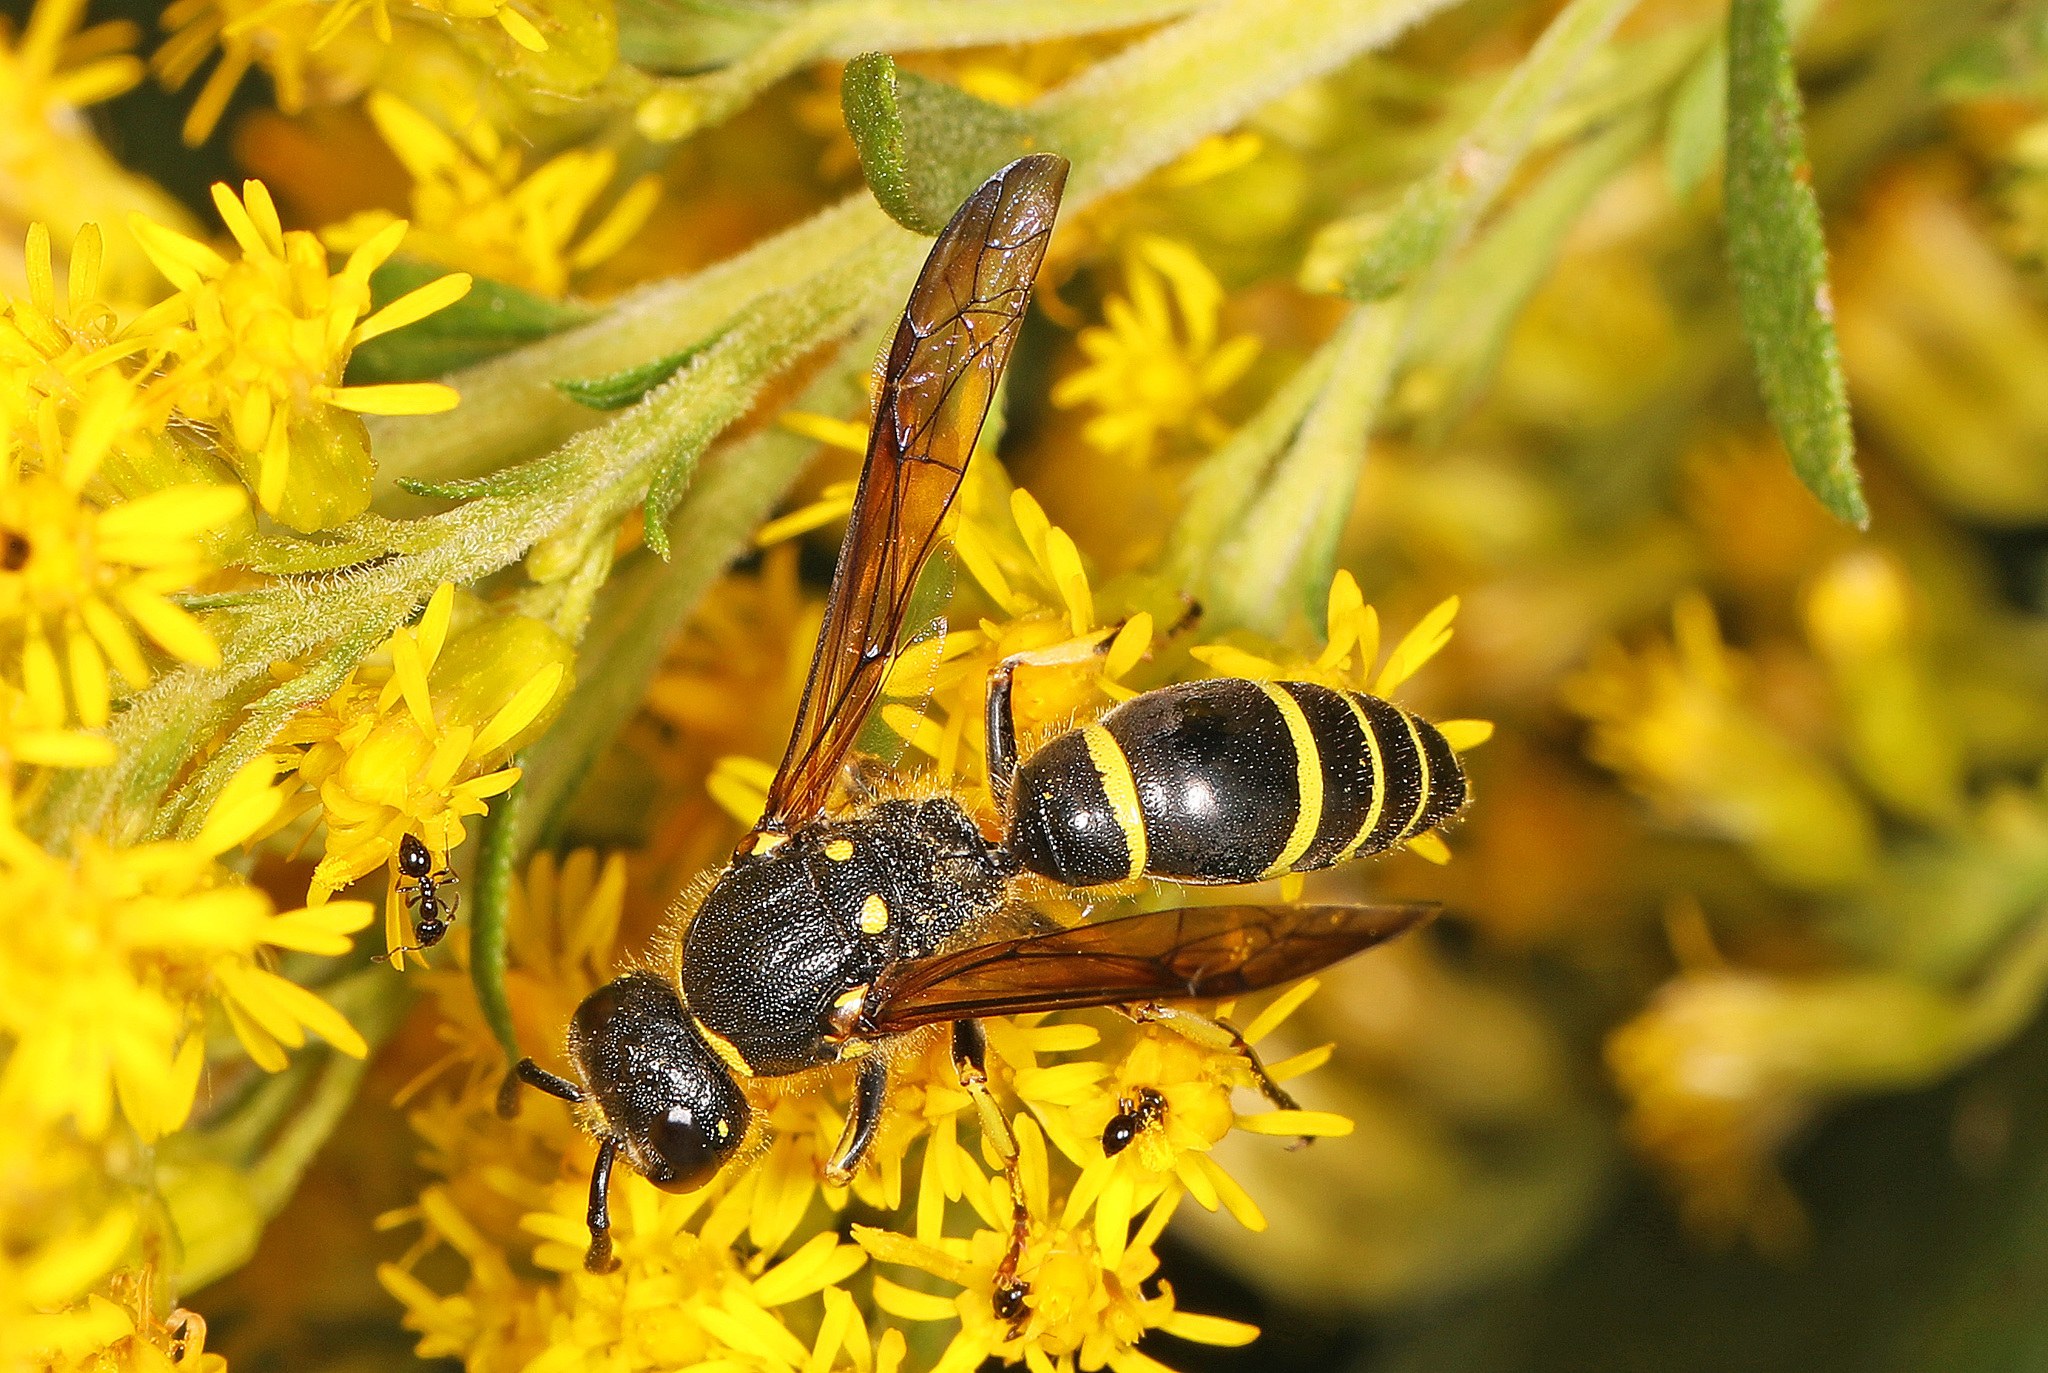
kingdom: Animalia
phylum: Arthropoda
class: Insecta
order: Hymenoptera
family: Vespidae
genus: Ancistrocerus
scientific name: Ancistrocerus
